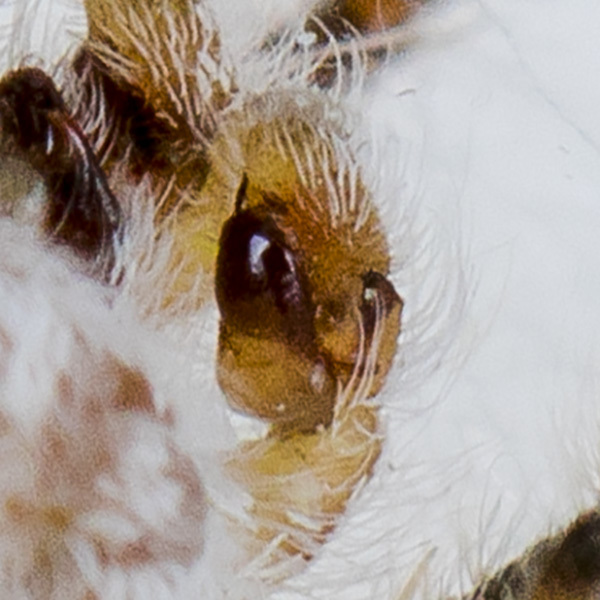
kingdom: Animalia
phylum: Arthropoda
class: Arachnida
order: Araneae
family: Salticidae
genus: Pseudomogrus
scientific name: Pseudomogrus zhilgaensis
